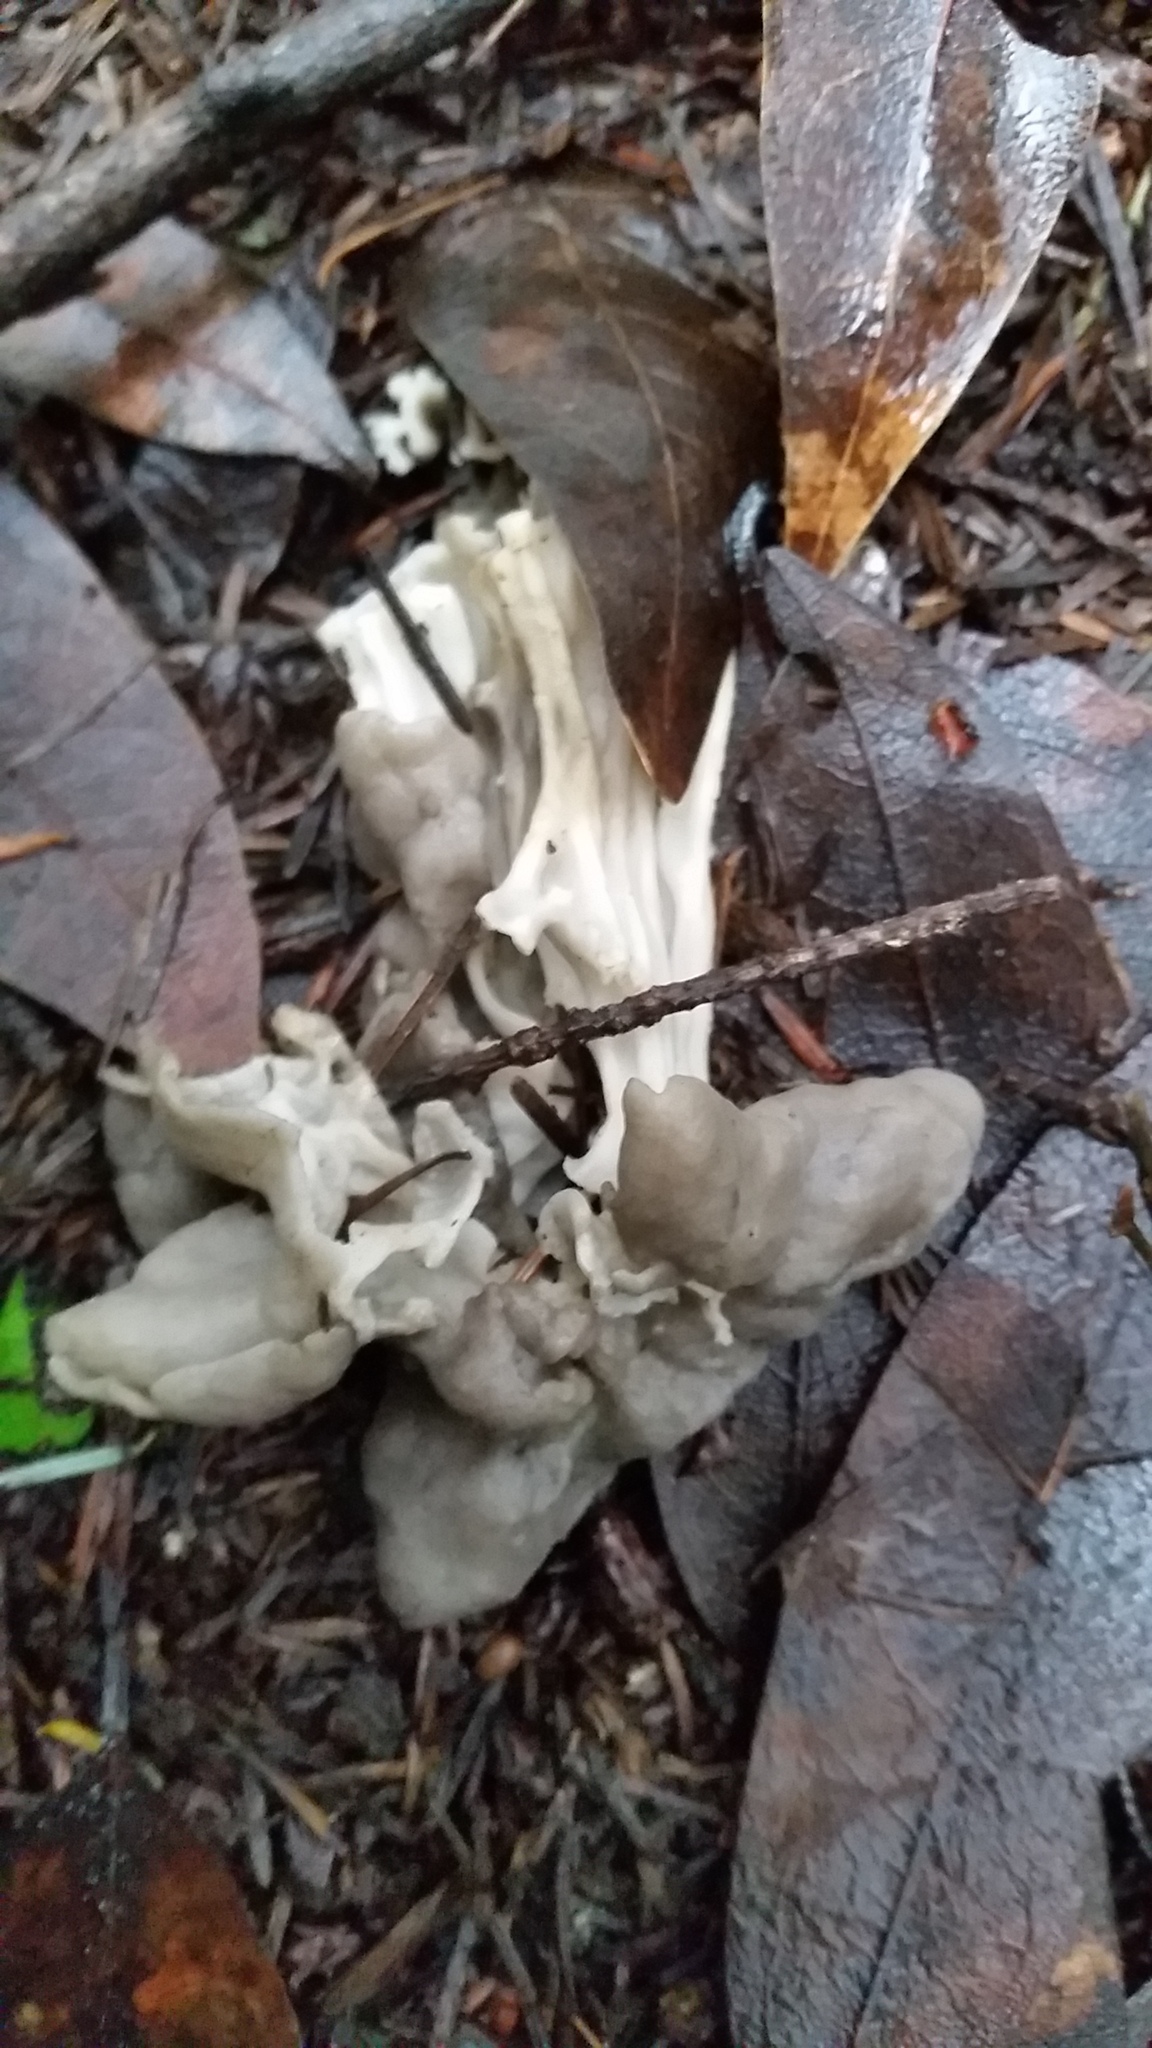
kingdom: Fungi
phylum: Ascomycota
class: Pezizomycetes
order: Pezizales
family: Helvellaceae
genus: Helvella
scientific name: Helvella vespertina
